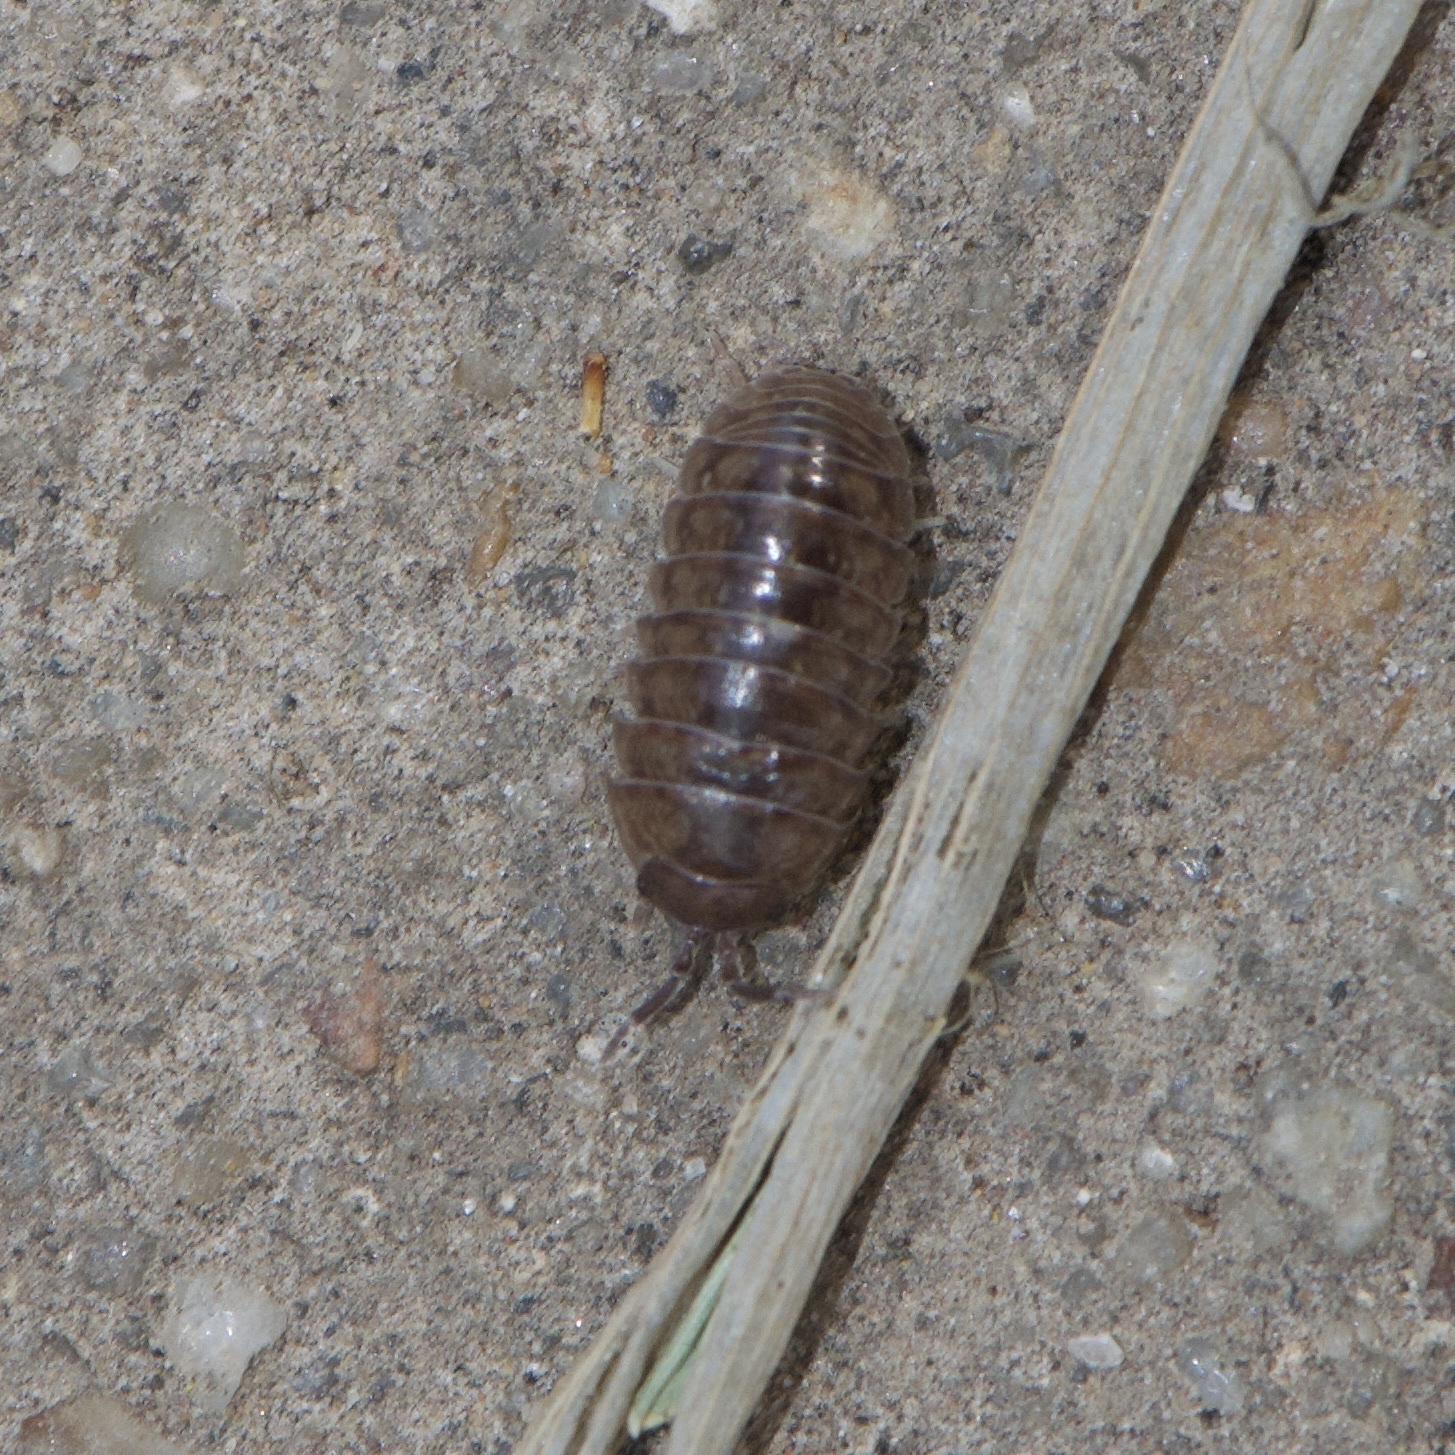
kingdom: Animalia
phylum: Arthropoda
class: Malacostraca
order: Isopoda
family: Armadillidiidae
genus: Armadillidium
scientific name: Armadillidium vulgare
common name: Common pill woodlouse
